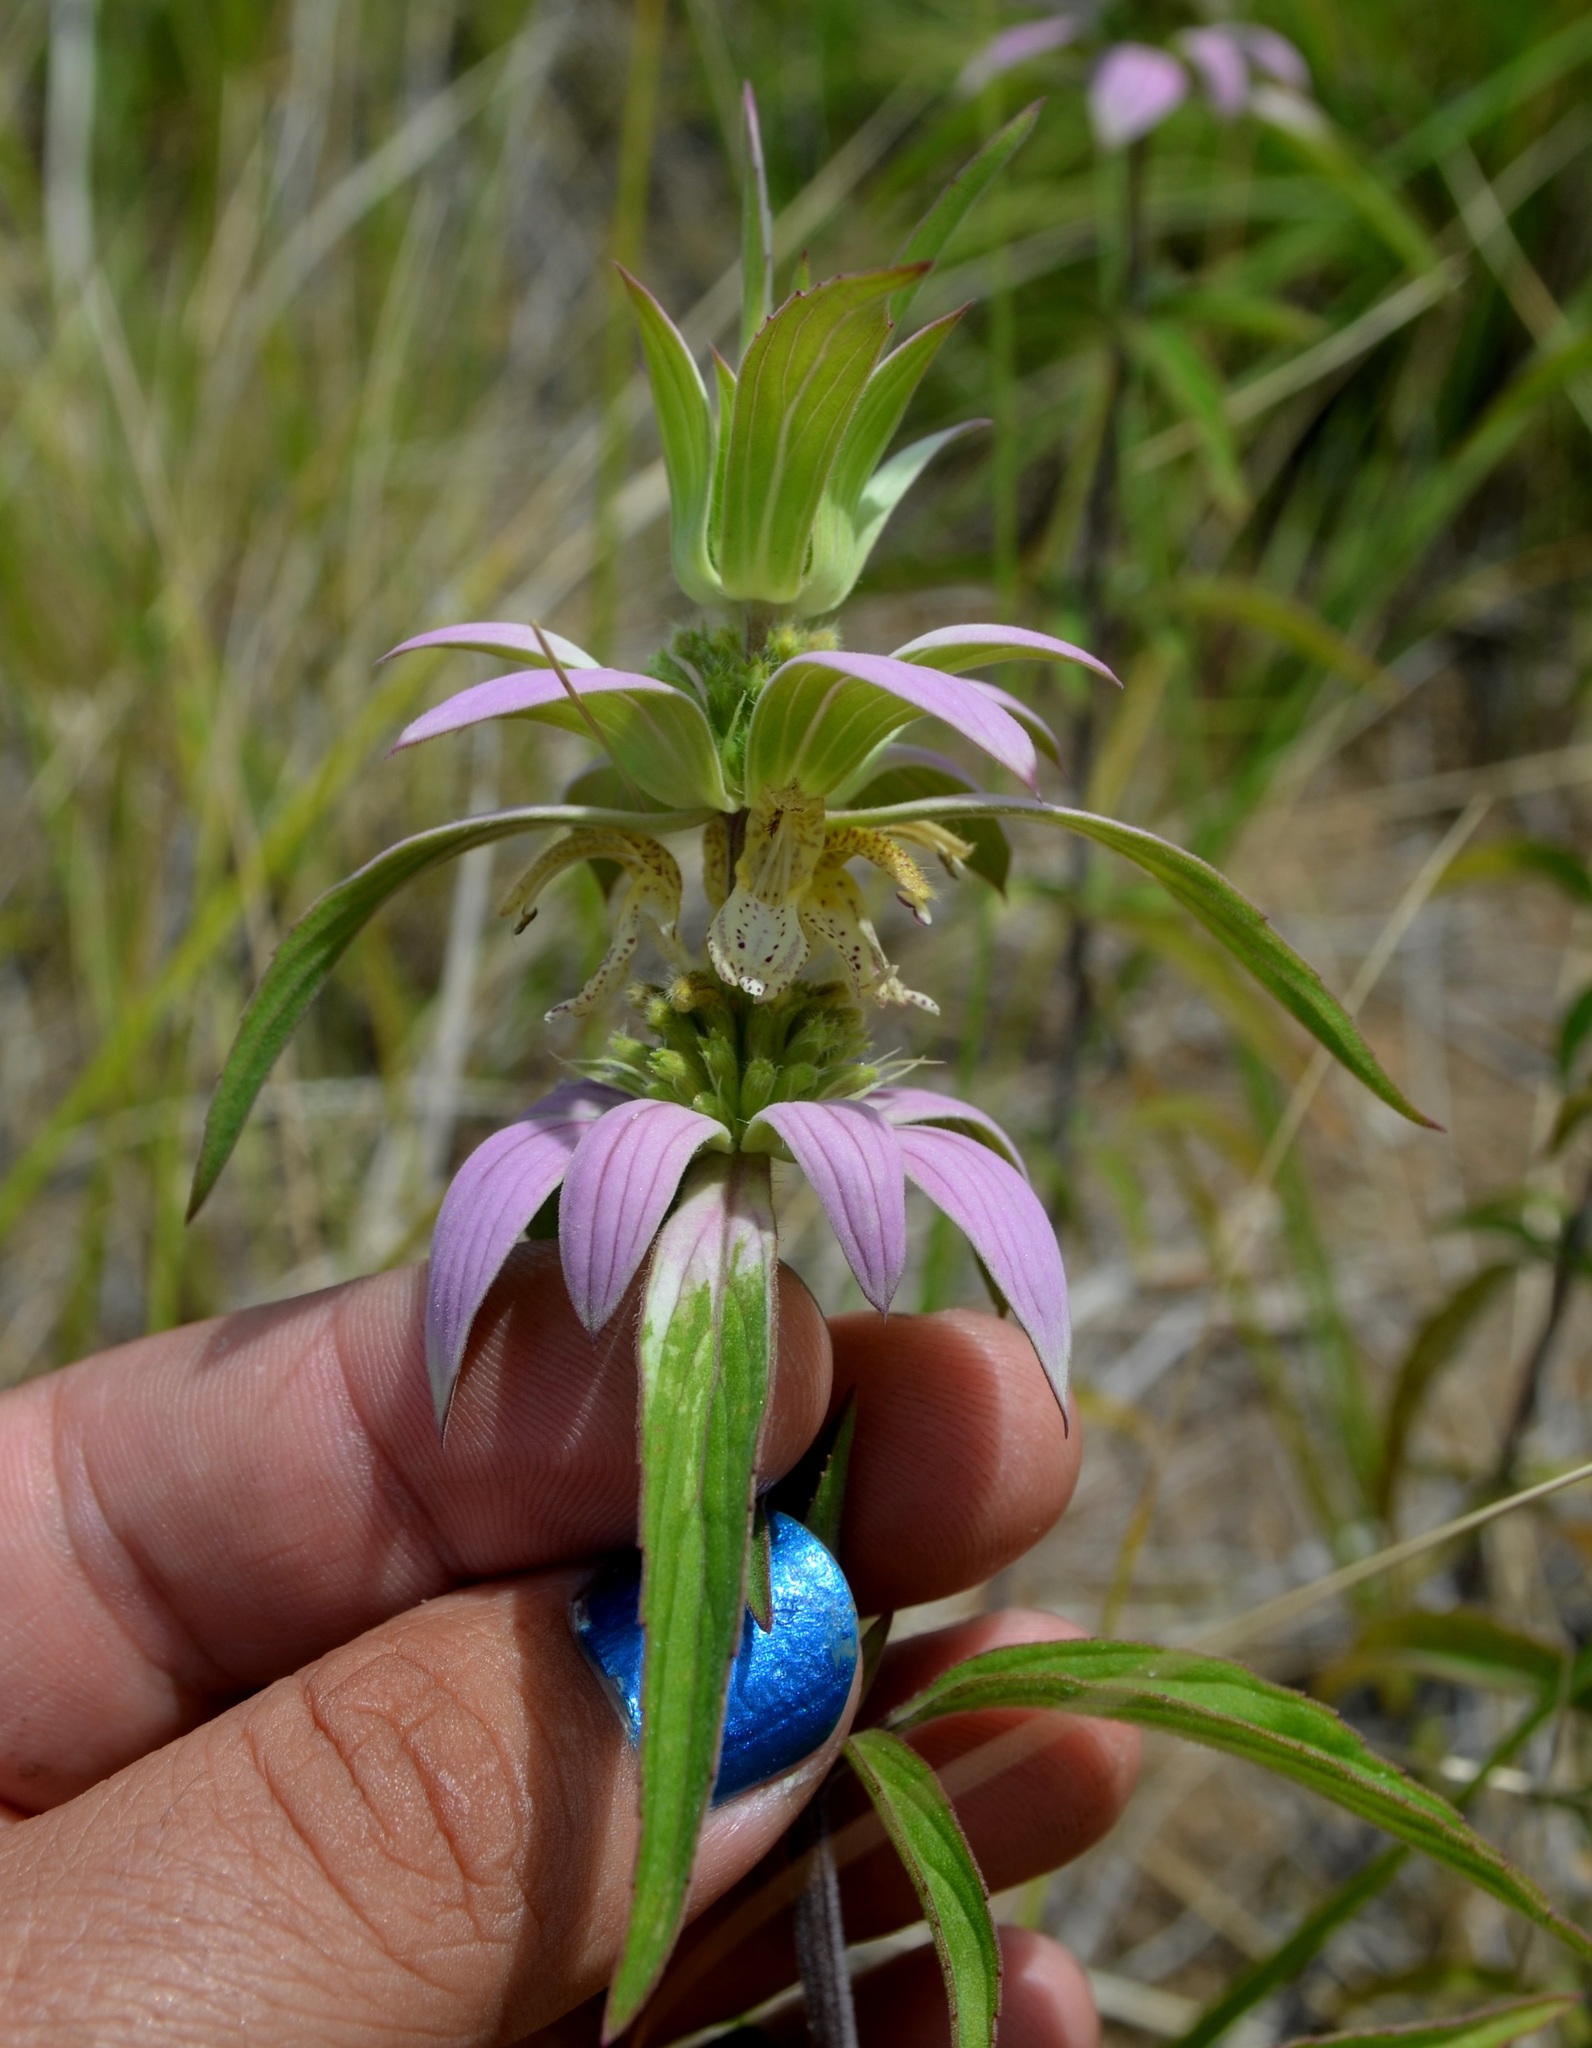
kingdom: Plantae
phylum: Tracheophyta
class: Magnoliopsida
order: Lamiales
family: Lamiaceae
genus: Monarda
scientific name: Monarda punctata
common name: Dotted monarda
